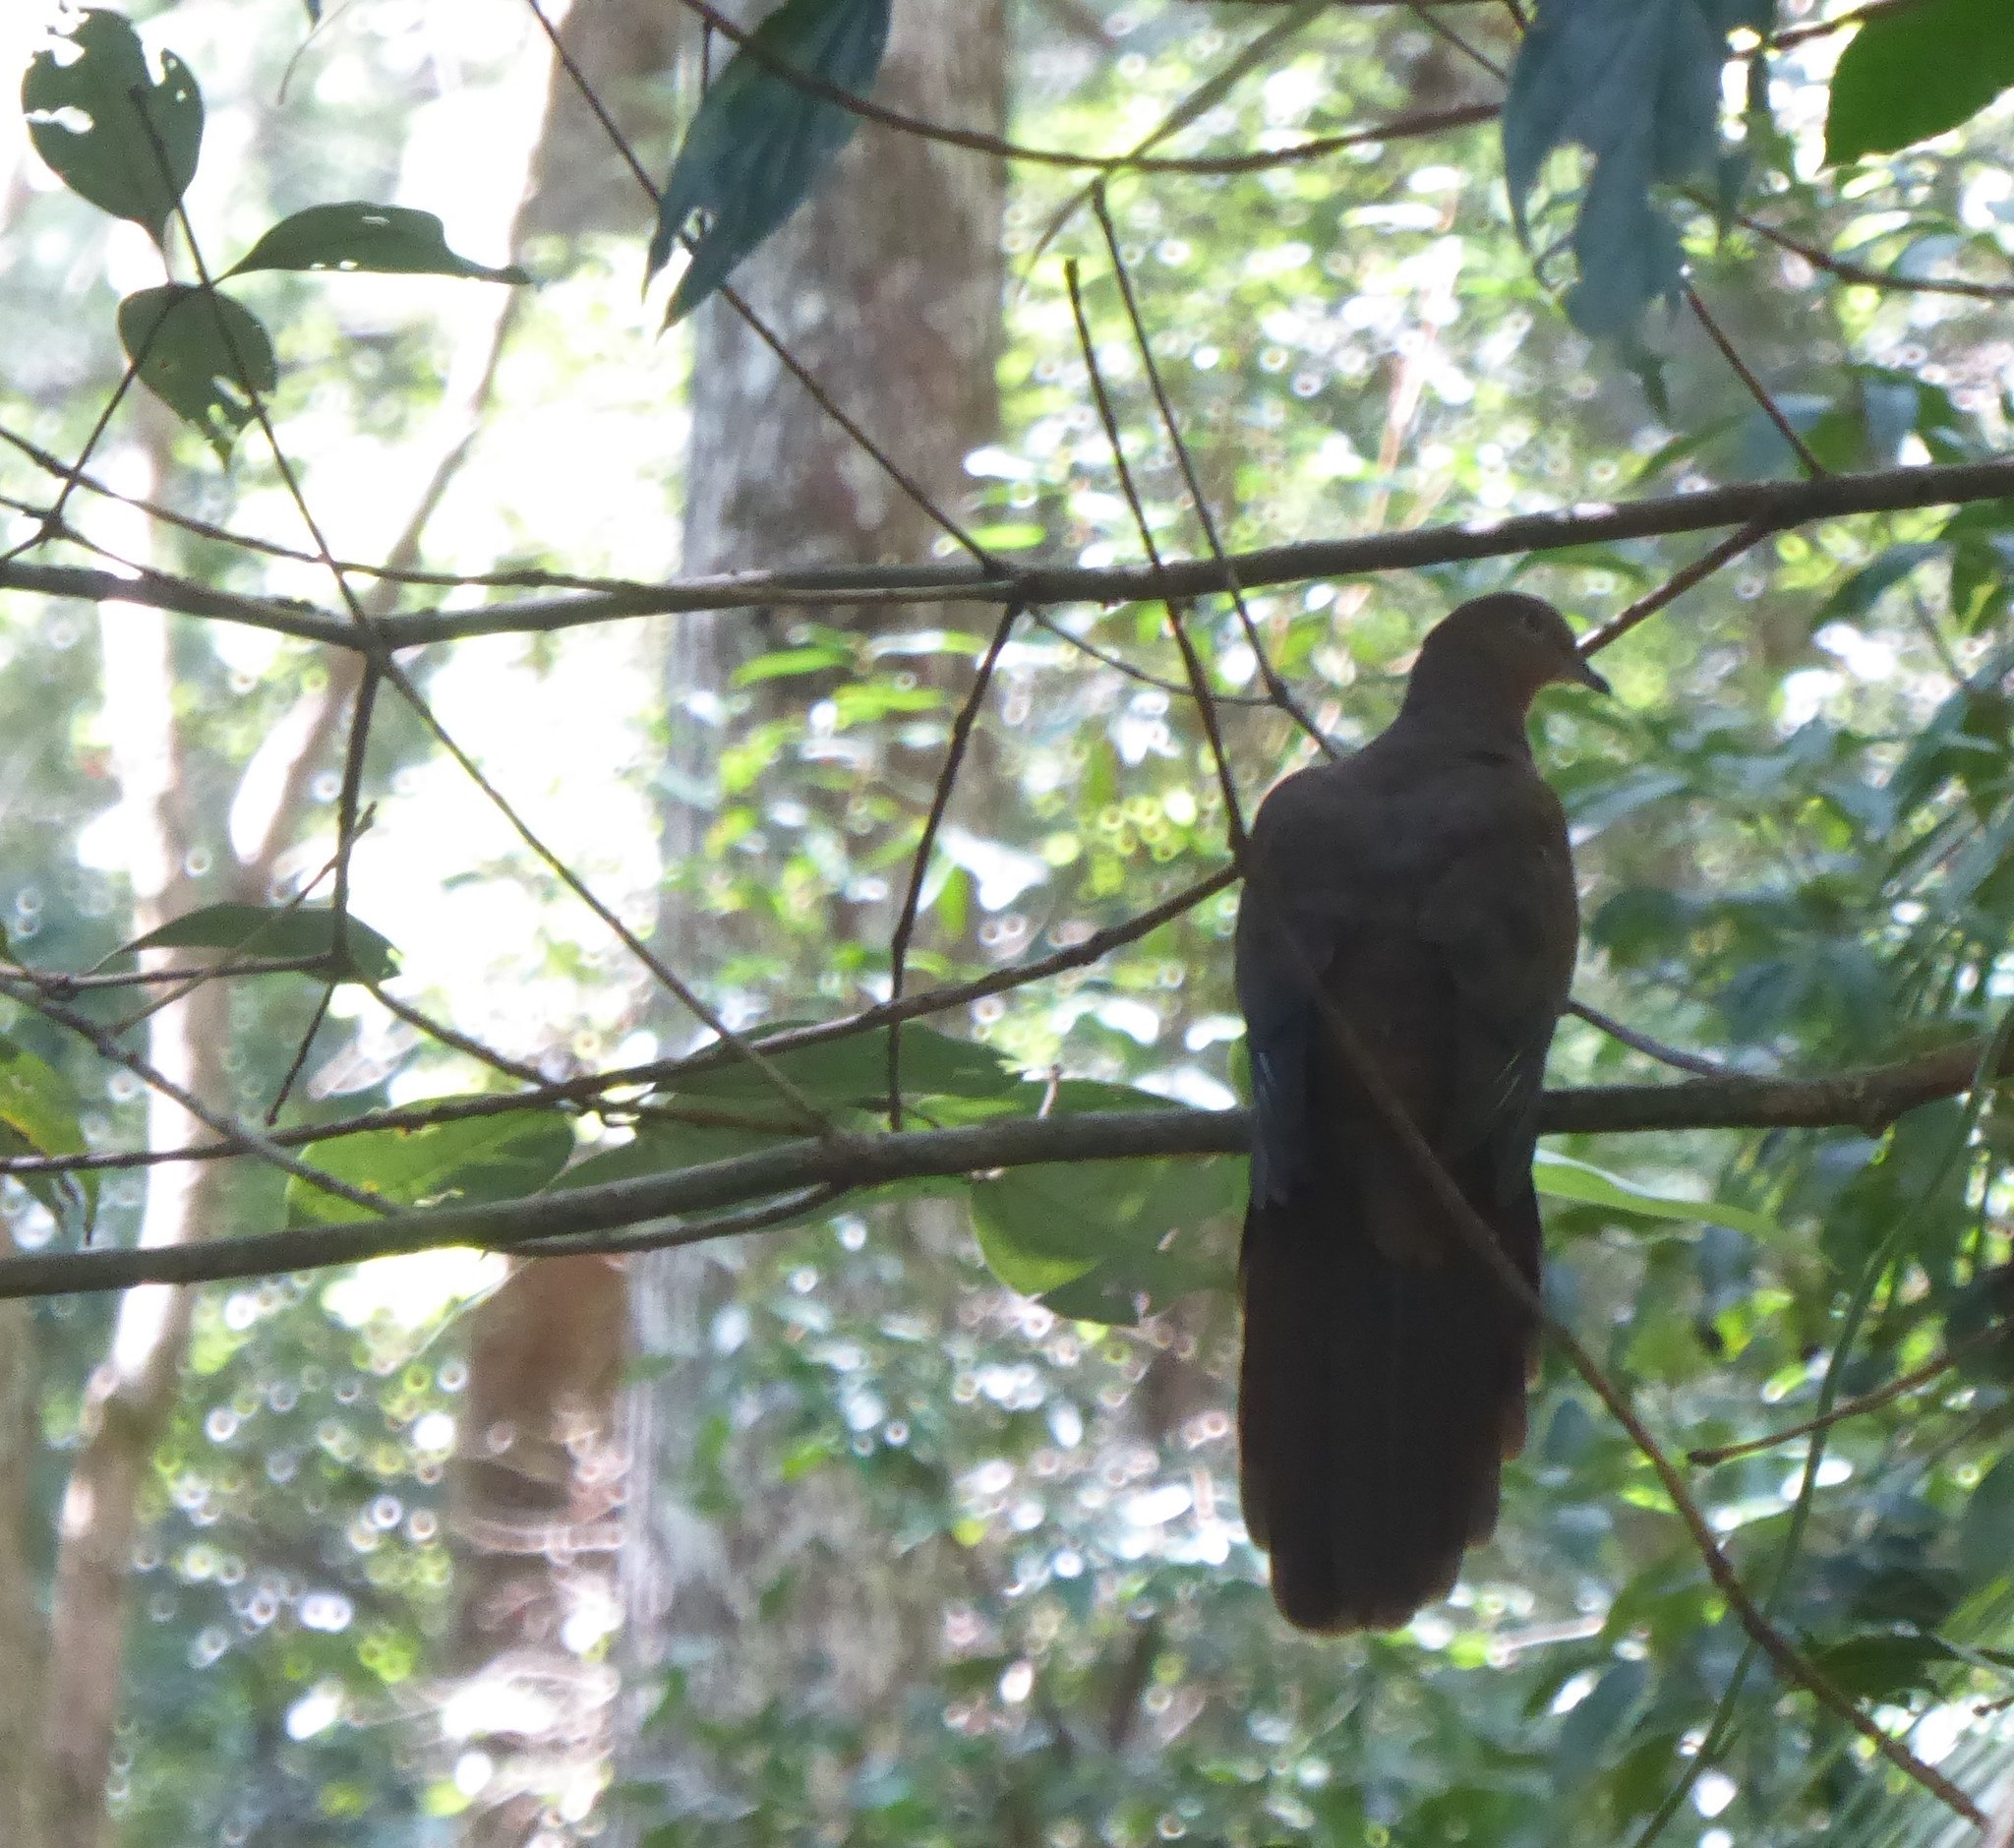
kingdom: Animalia
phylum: Chordata
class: Aves
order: Columbiformes
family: Columbidae
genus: Macropygia
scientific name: Macropygia phasianella
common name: Brown cuckoo-dove
